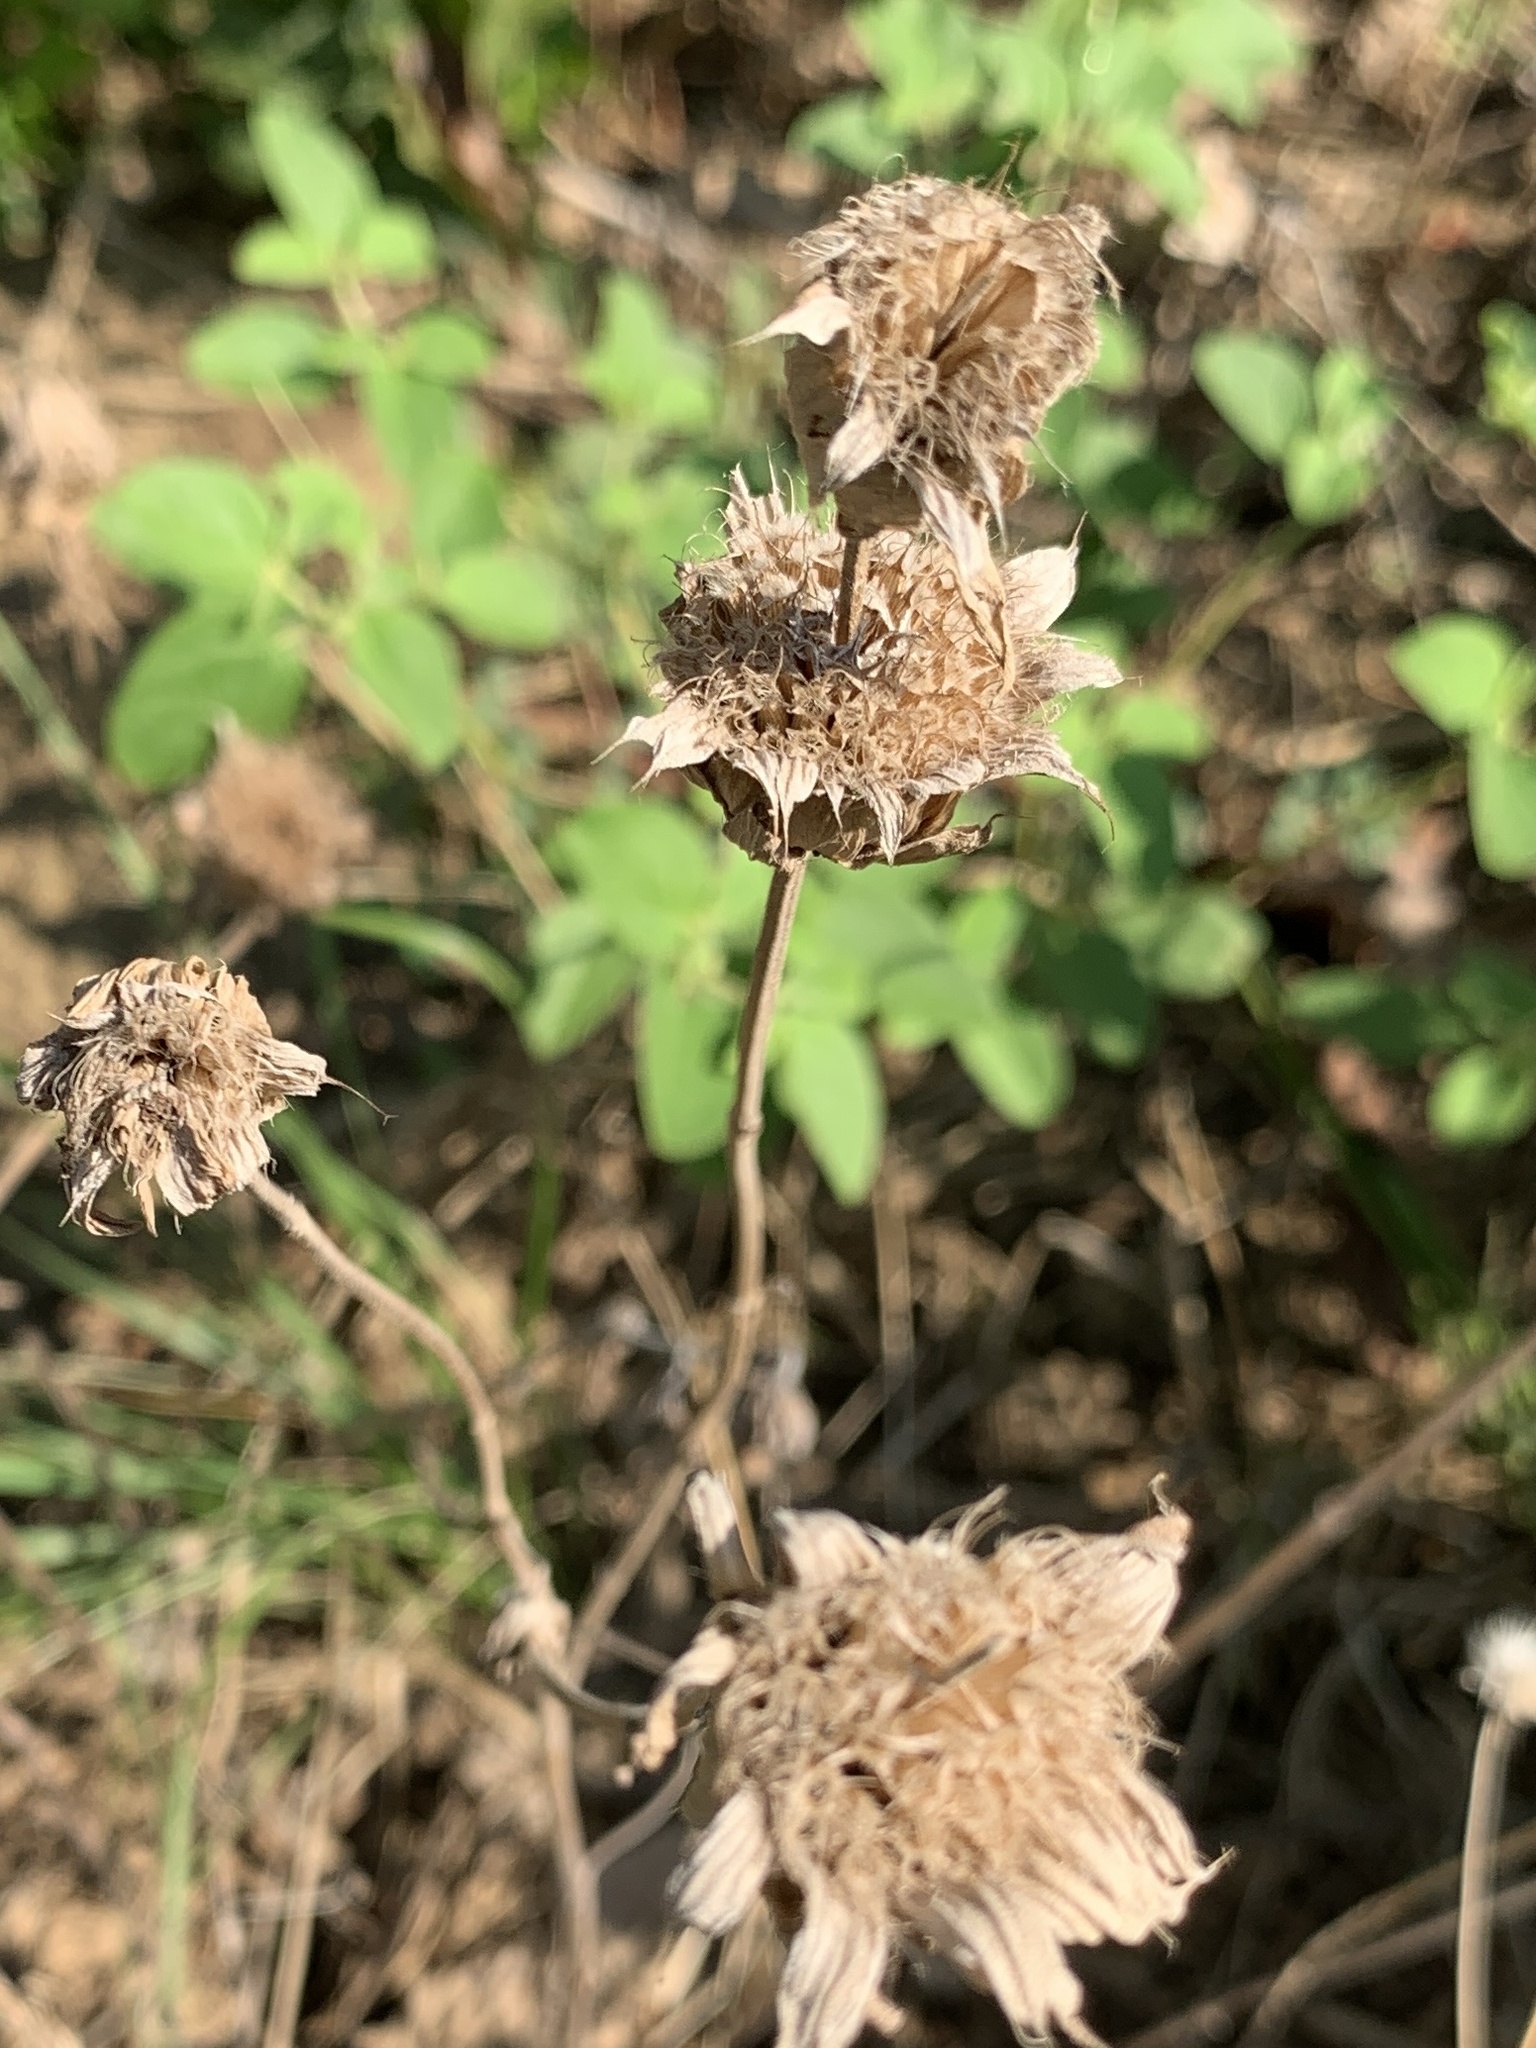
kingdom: Plantae
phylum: Tracheophyta
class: Magnoliopsida
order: Lamiales
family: Lamiaceae
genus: Monarda
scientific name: Monarda citriodora
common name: Lemon beebalm
